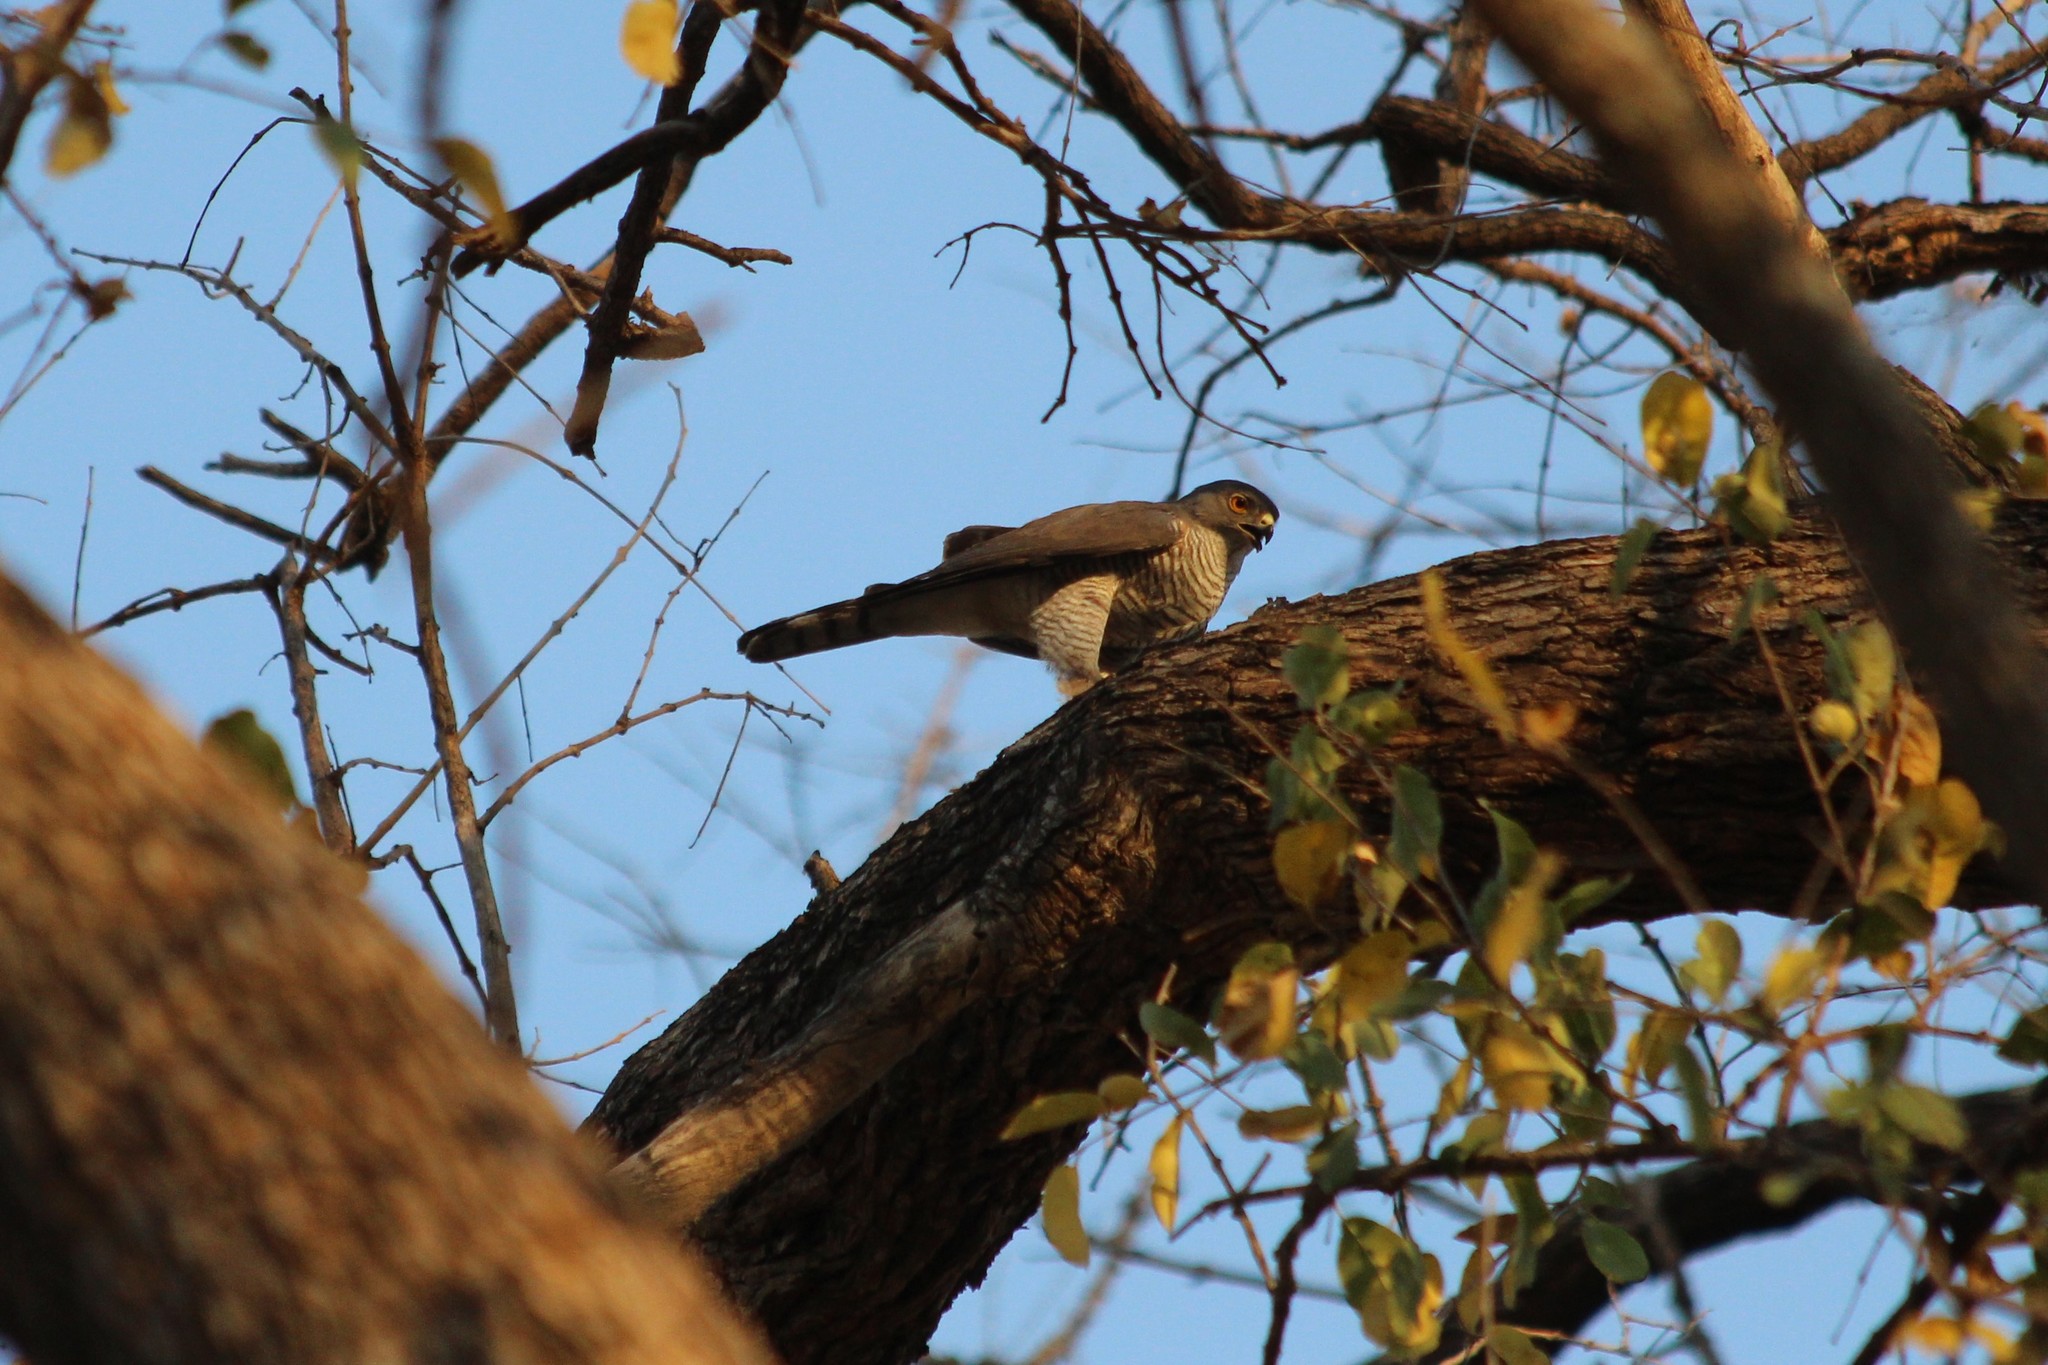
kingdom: Animalia
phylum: Chordata
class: Aves
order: Accipitriformes
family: Accipitridae
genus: Accipiter
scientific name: Accipiter badius
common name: Shikra
